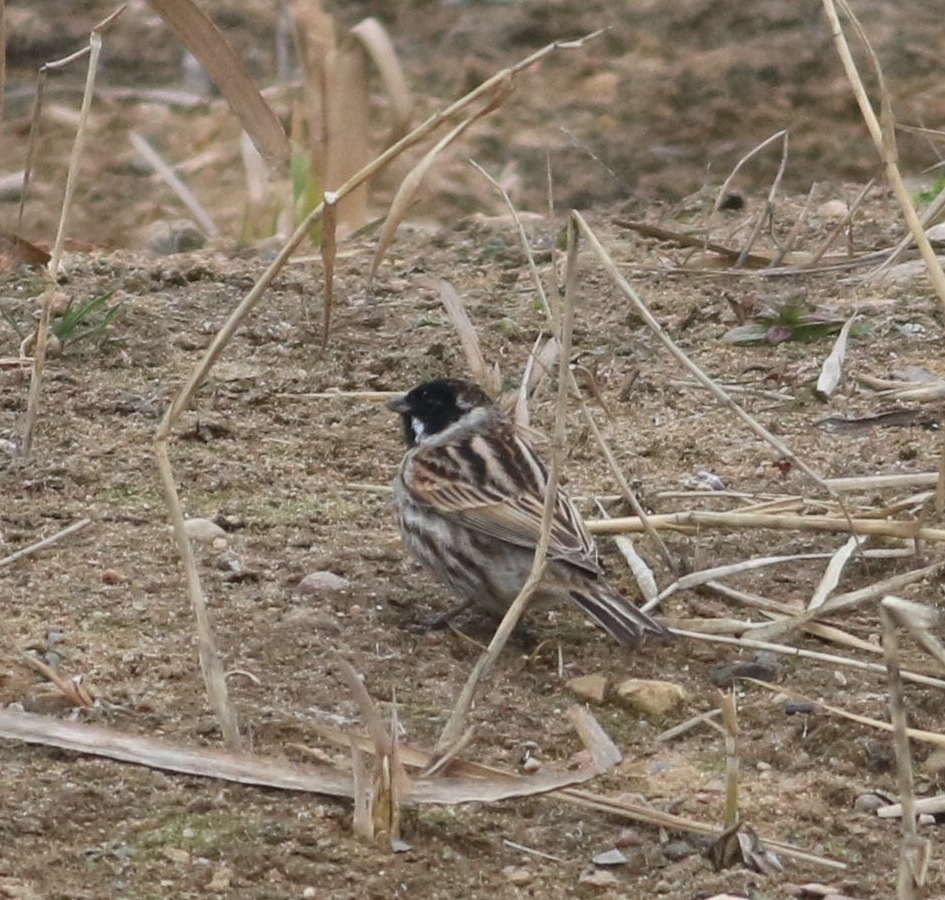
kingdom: Animalia
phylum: Chordata
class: Aves
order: Passeriformes
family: Emberizidae
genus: Emberiza
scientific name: Emberiza schoeniclus
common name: Reed bunting
